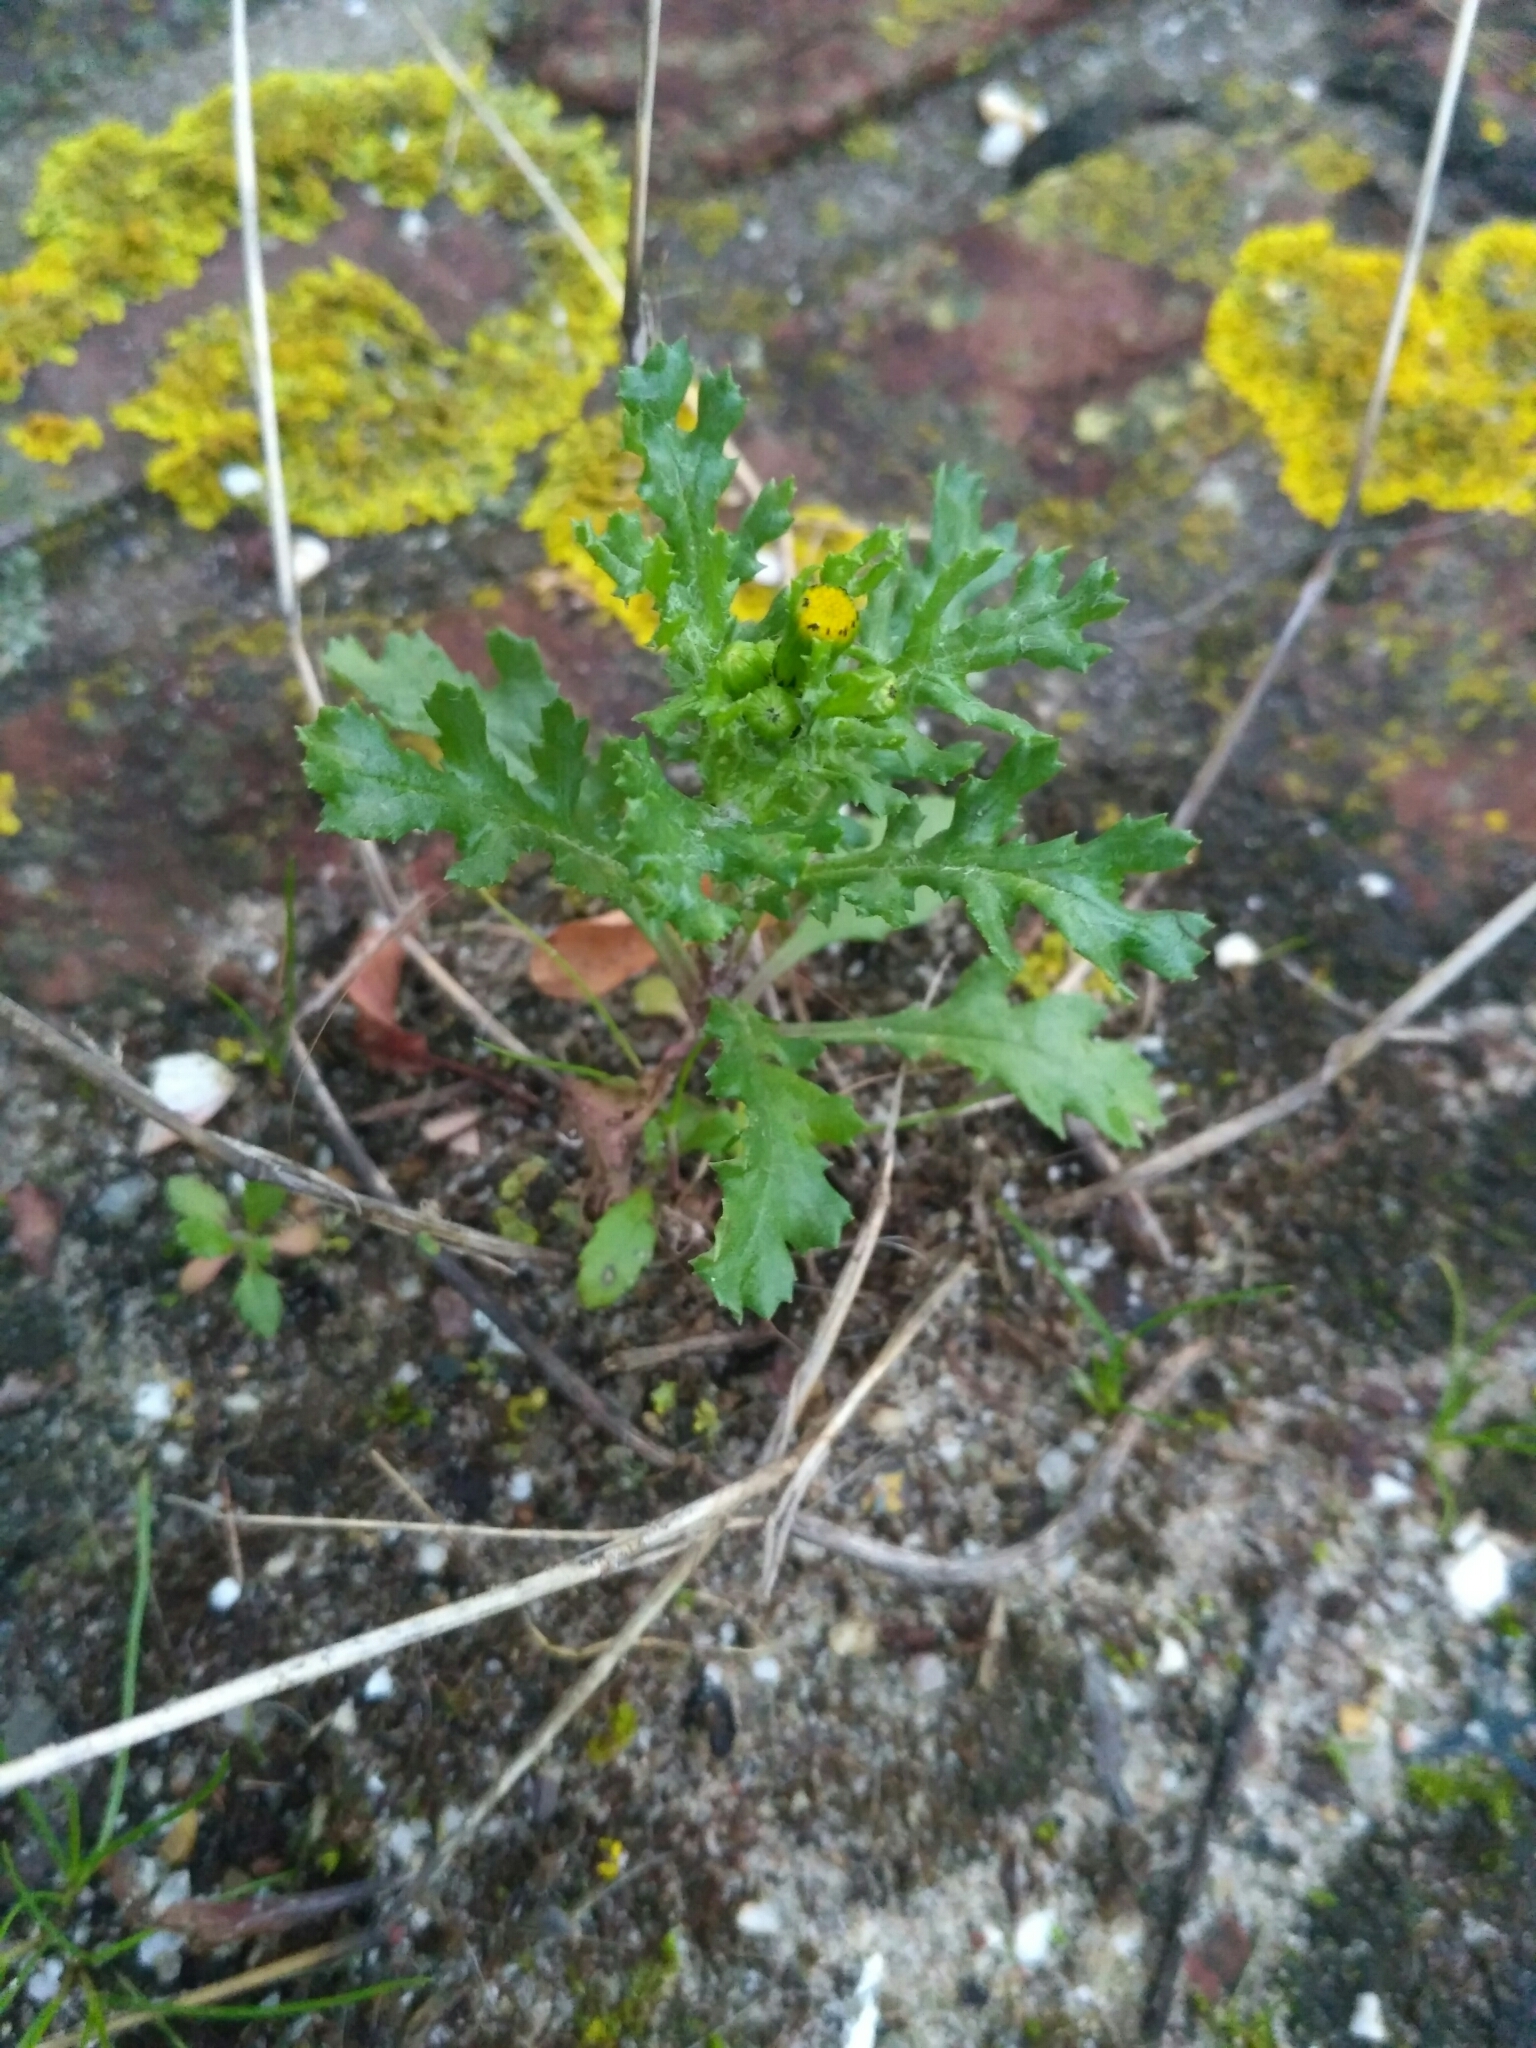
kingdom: Plantae
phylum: Tracheophyta
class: Magnoliopsida
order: Asterales
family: Asteraceae
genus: Senecio
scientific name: Senecio vulgaris
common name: Old-man-in-the-spring
